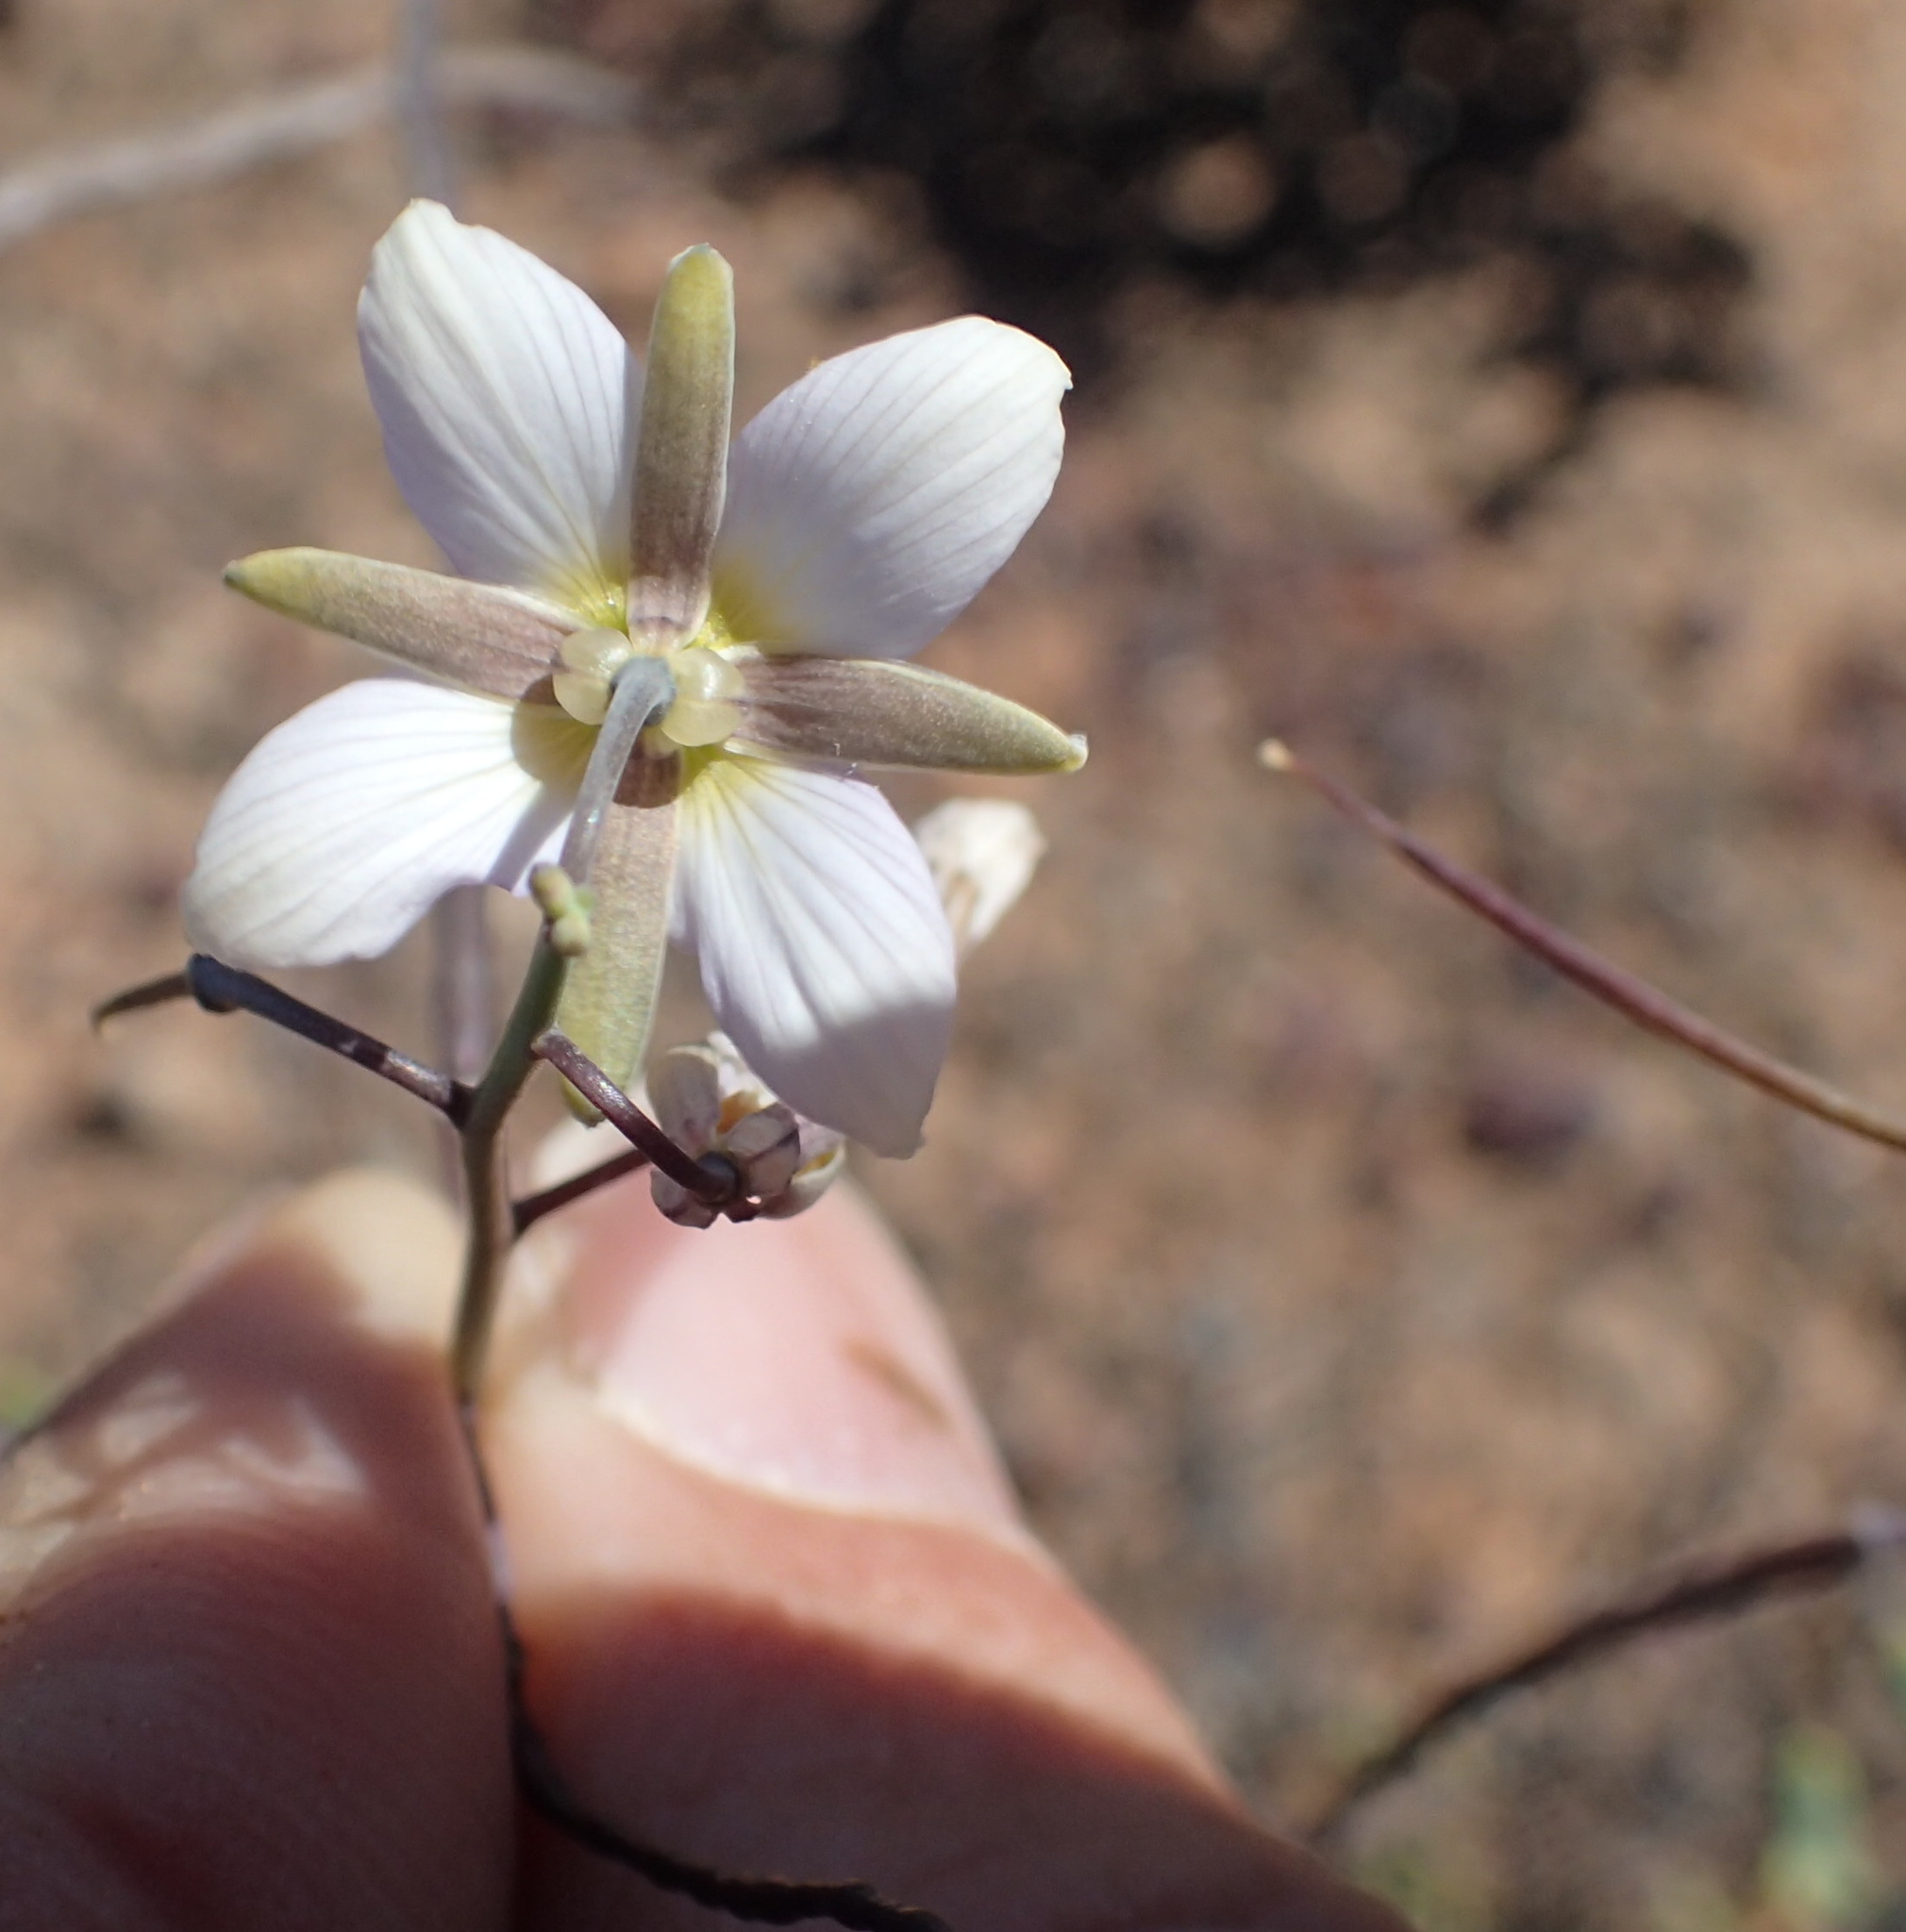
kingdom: Plantae
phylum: Tracheophyta
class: Magnoliopsida
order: Brassicales
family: Brassicaceae
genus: Heliophila
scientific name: Heliophila cornuta
